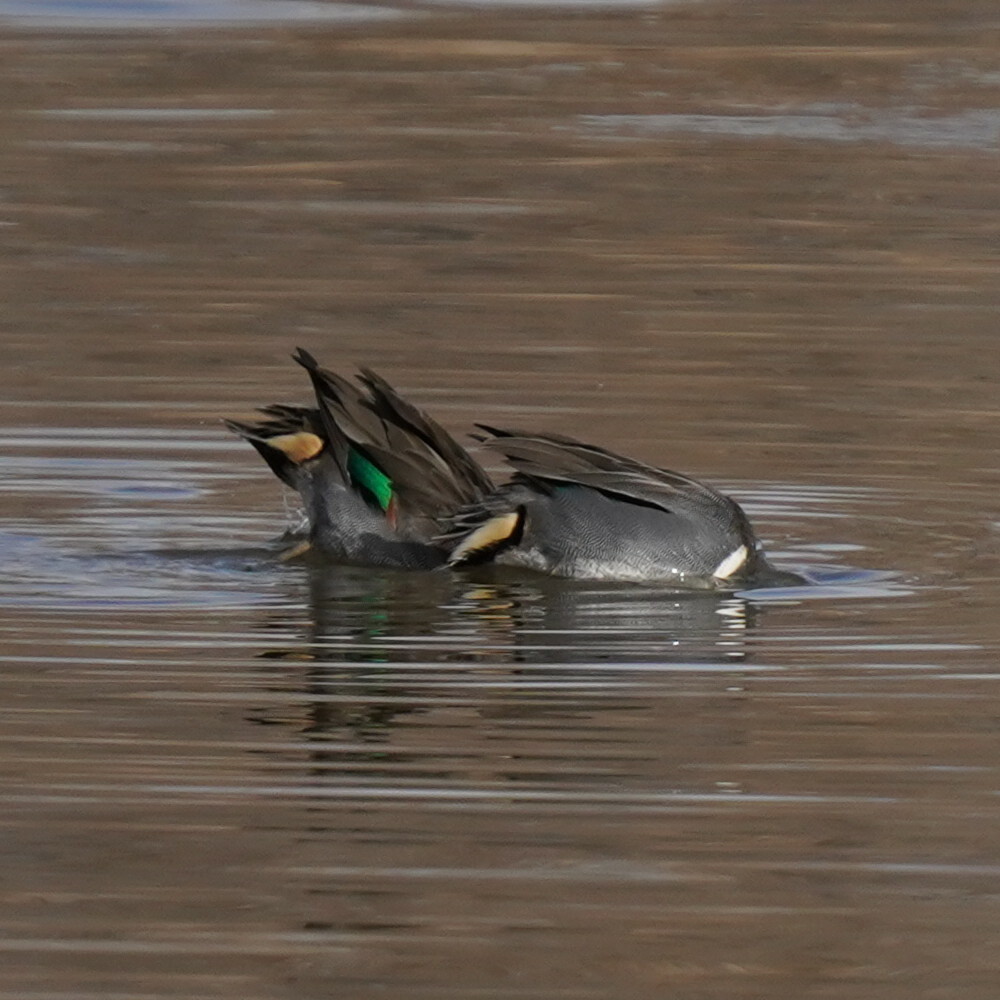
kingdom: Animalia
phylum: Chordata
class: Aves
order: Anseriformes
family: Anatidae
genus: Anas
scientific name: Anas carolinensis
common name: Green-winged teal
